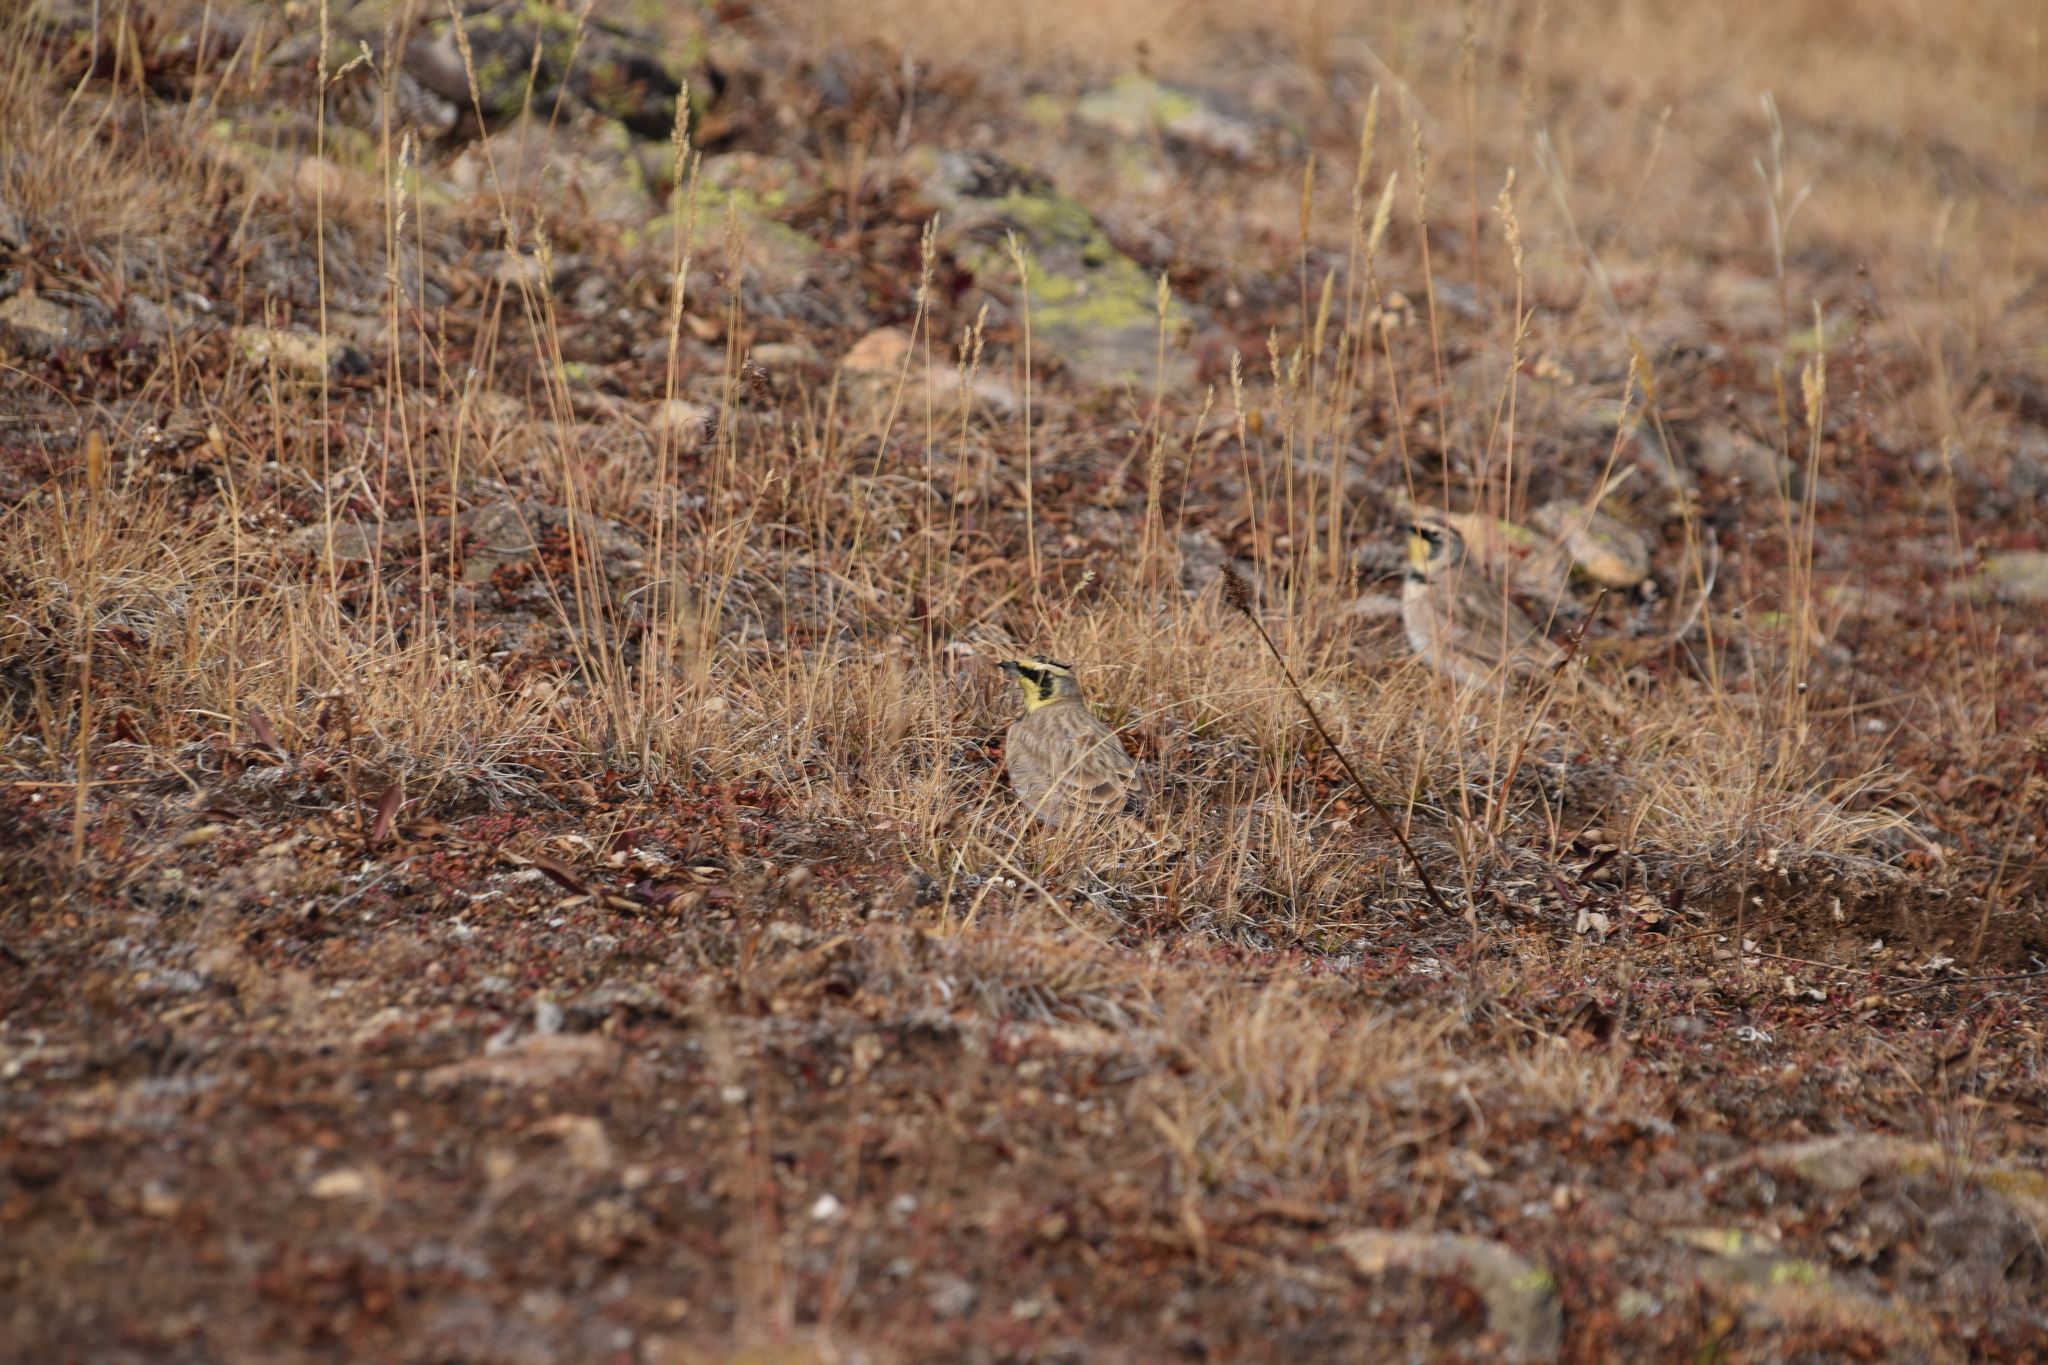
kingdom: Animalia
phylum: Chordata
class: Aves
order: Passeriformes
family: Alaudidae
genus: Eremophila
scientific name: Eremophila alpestris
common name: Horned lark
